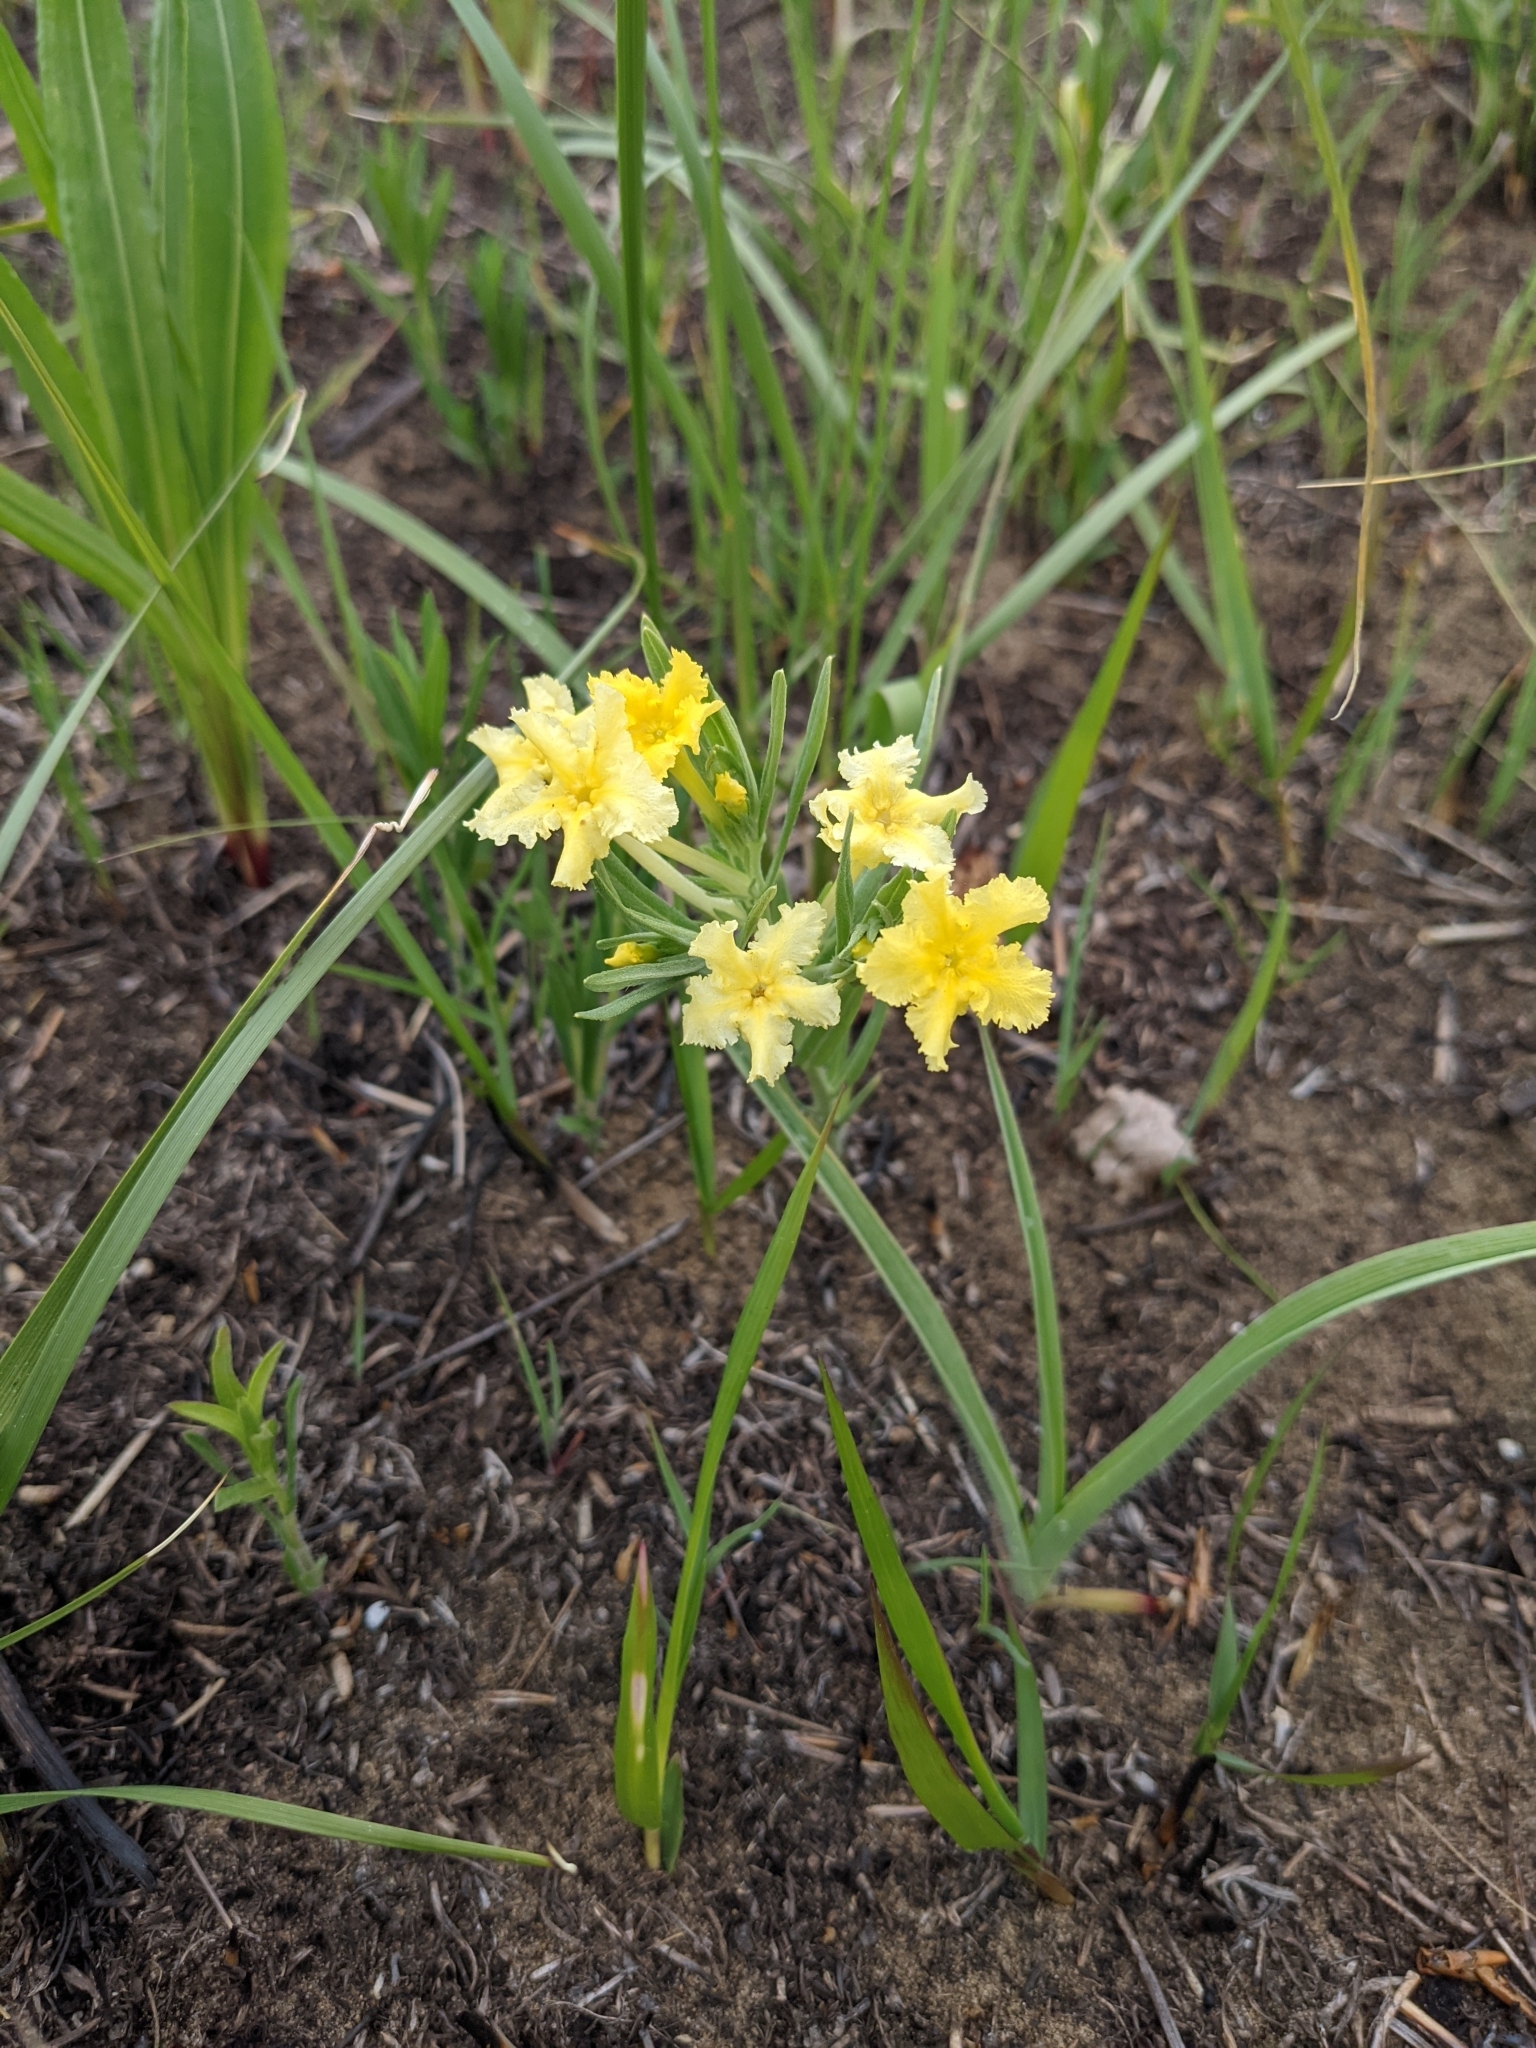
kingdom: Plantae
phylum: Tracheophyta
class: Magnoliopsida
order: Boraginales
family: Boraginaceae
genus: Lithospermum
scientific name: Lithospermum incisum
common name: Fringed gromwell
